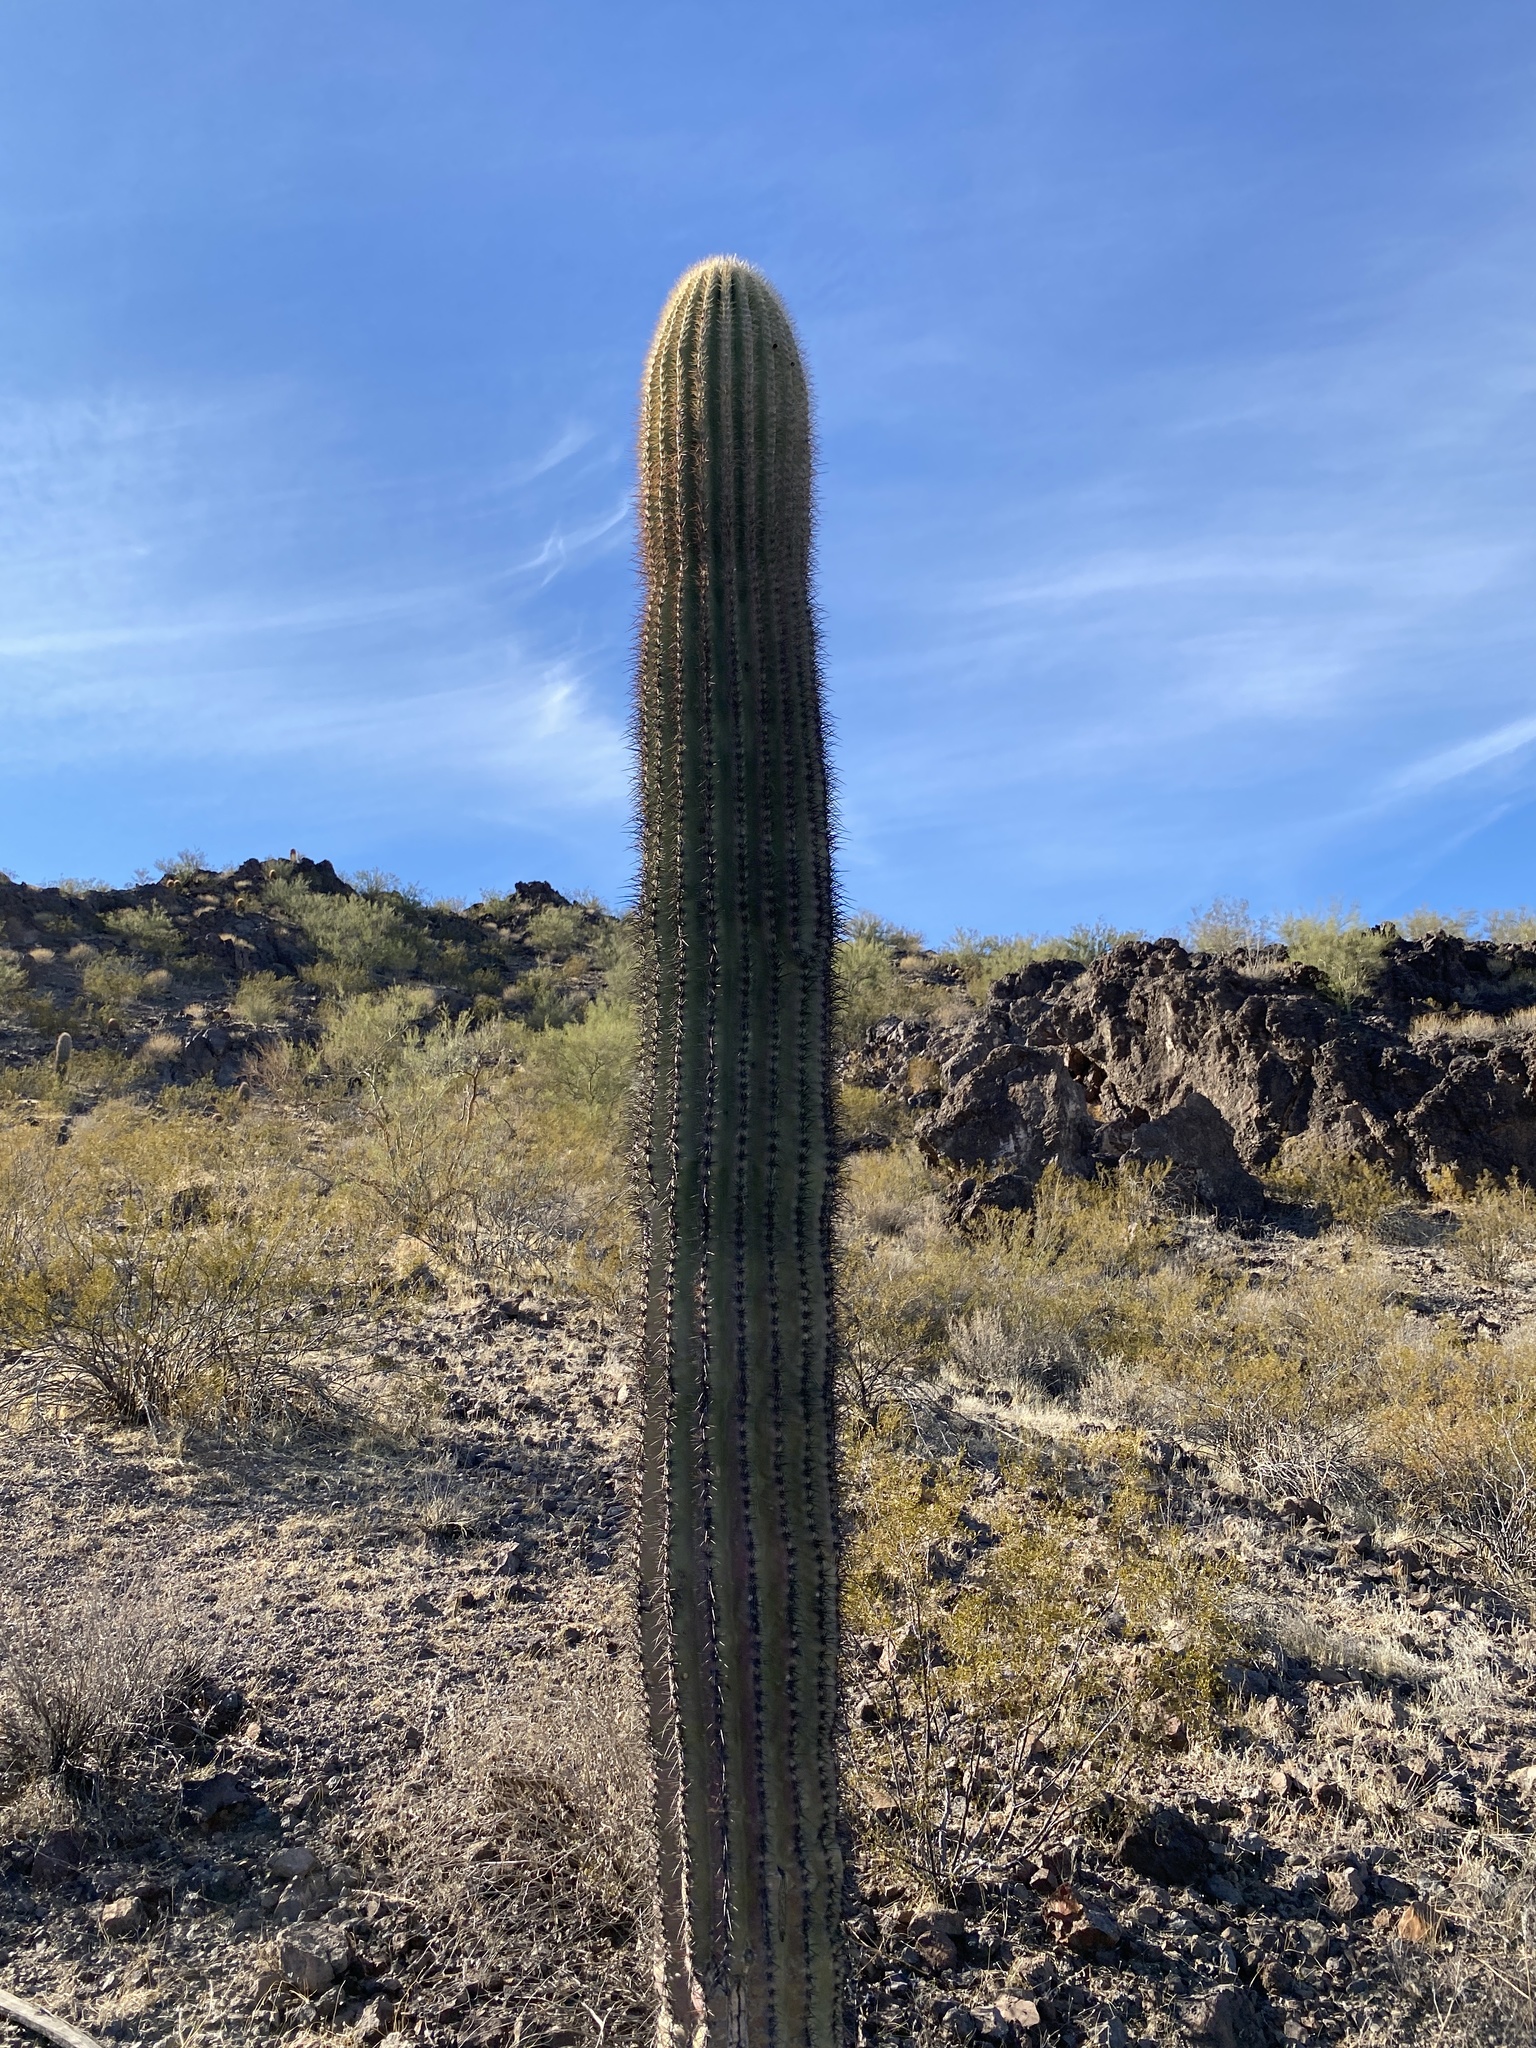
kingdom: Plantae
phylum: Tracheophyta
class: Magnoliopsida
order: Caryophyllales
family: Cactaceae
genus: Carnegiea
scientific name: Carnegiea gigantea
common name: Saguaro
